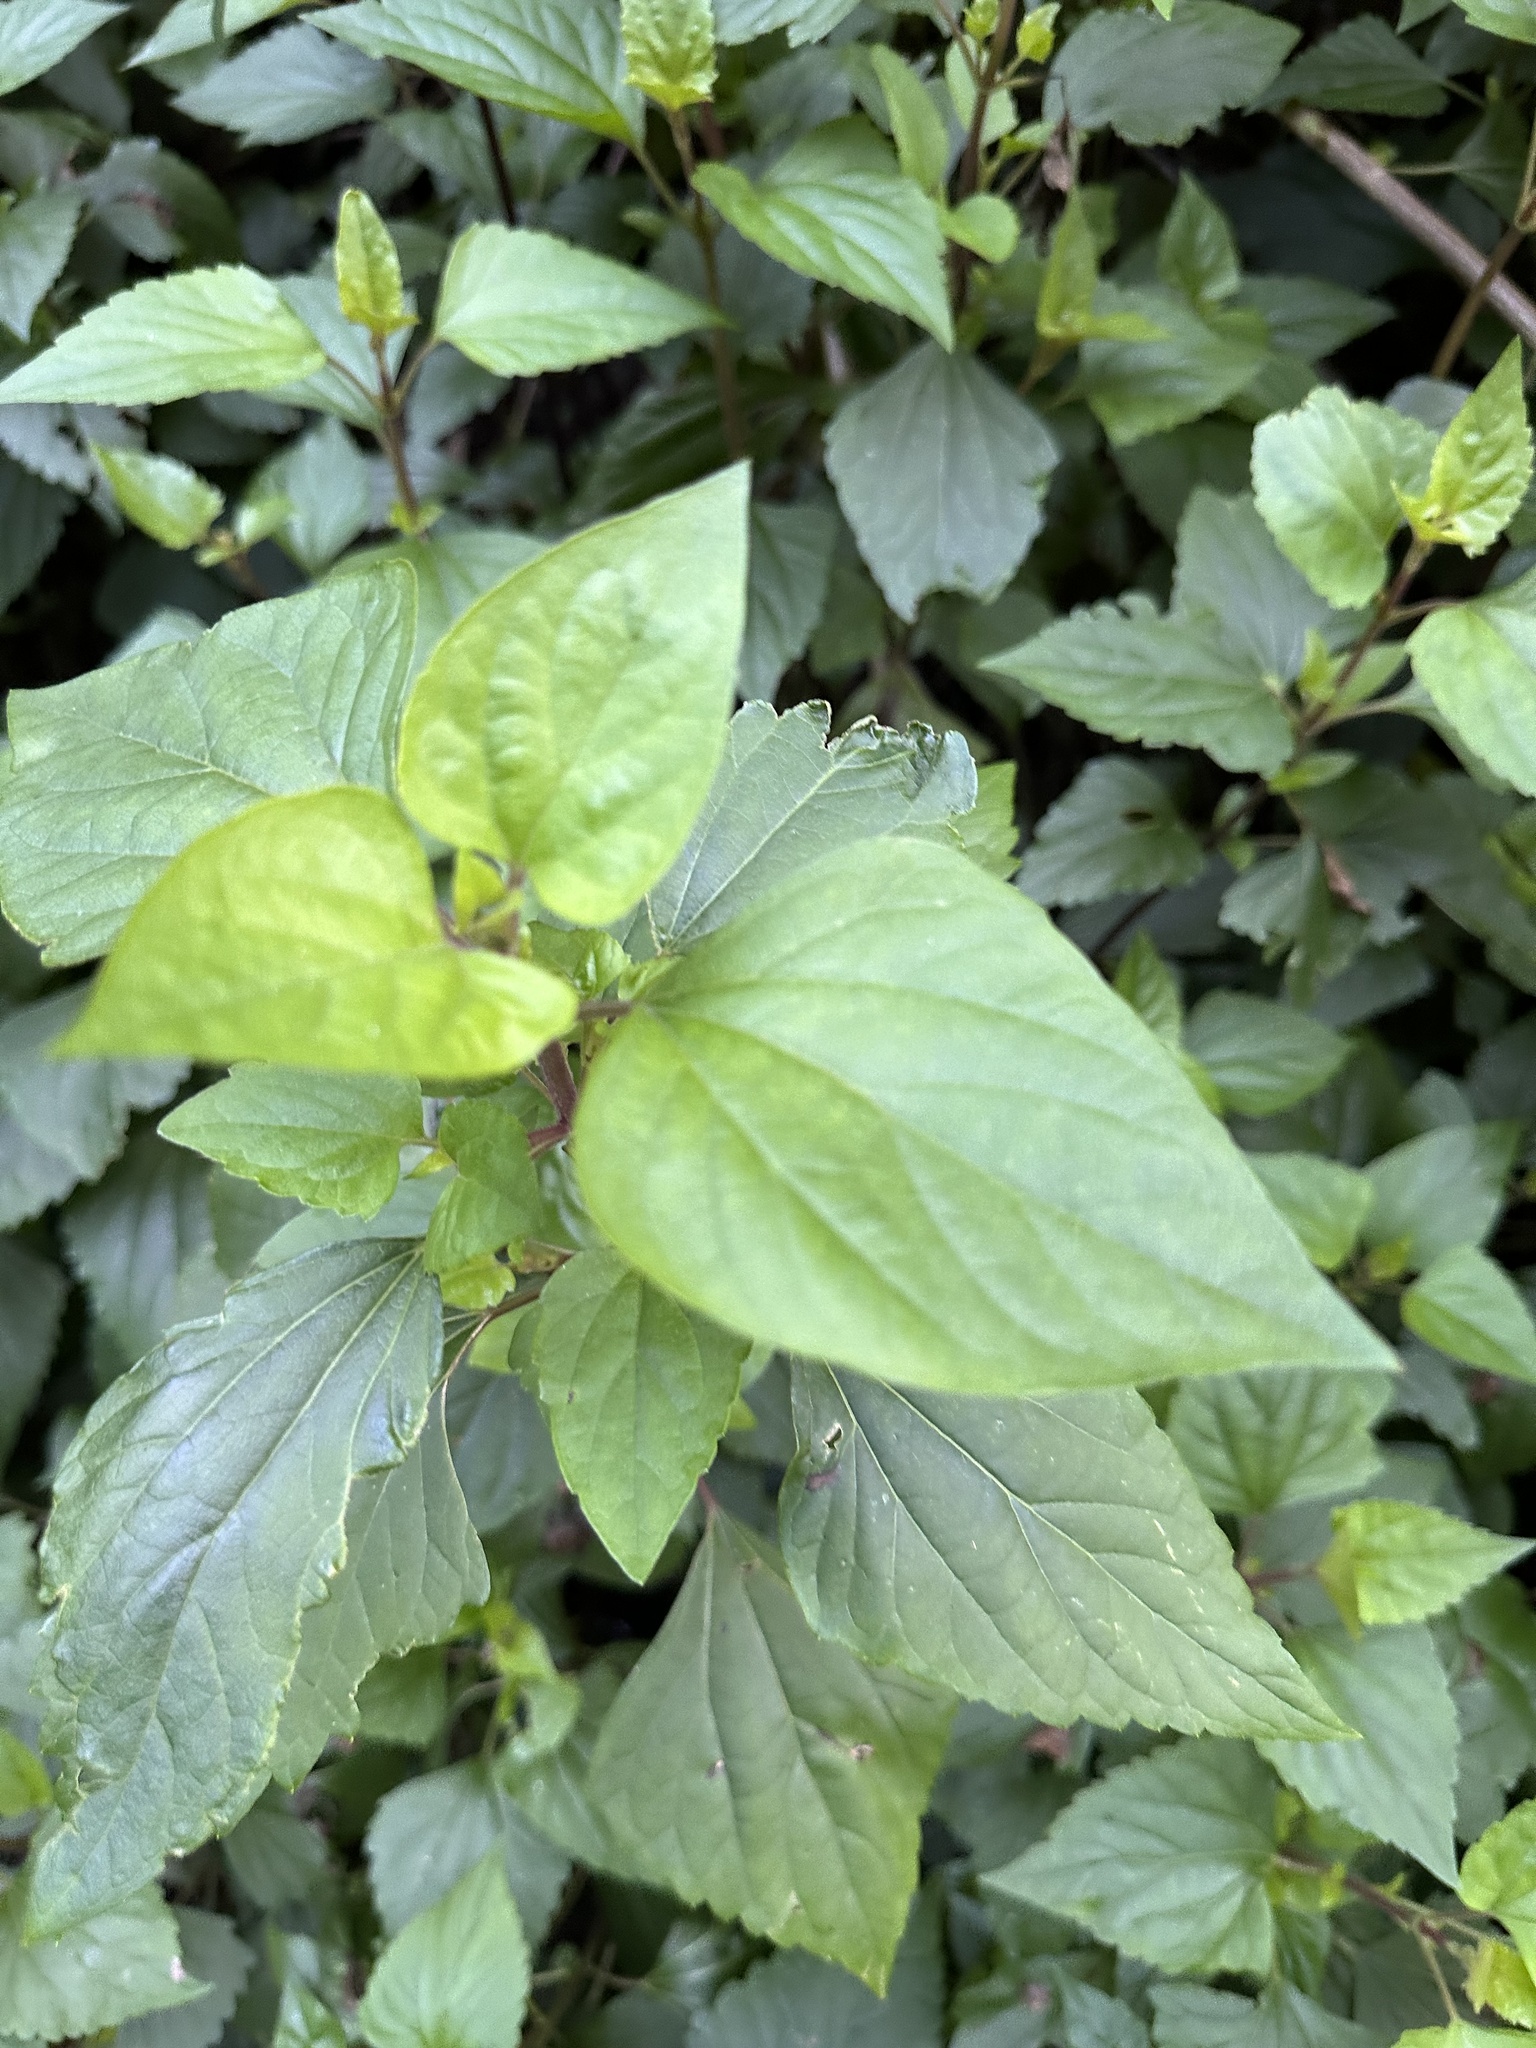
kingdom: Plantae
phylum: Tracheophyta
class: Magnoliopsida
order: Asterales
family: Asteraceae
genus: Ageratina
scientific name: Ageratina adenophora
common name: Sticky snakeroot
